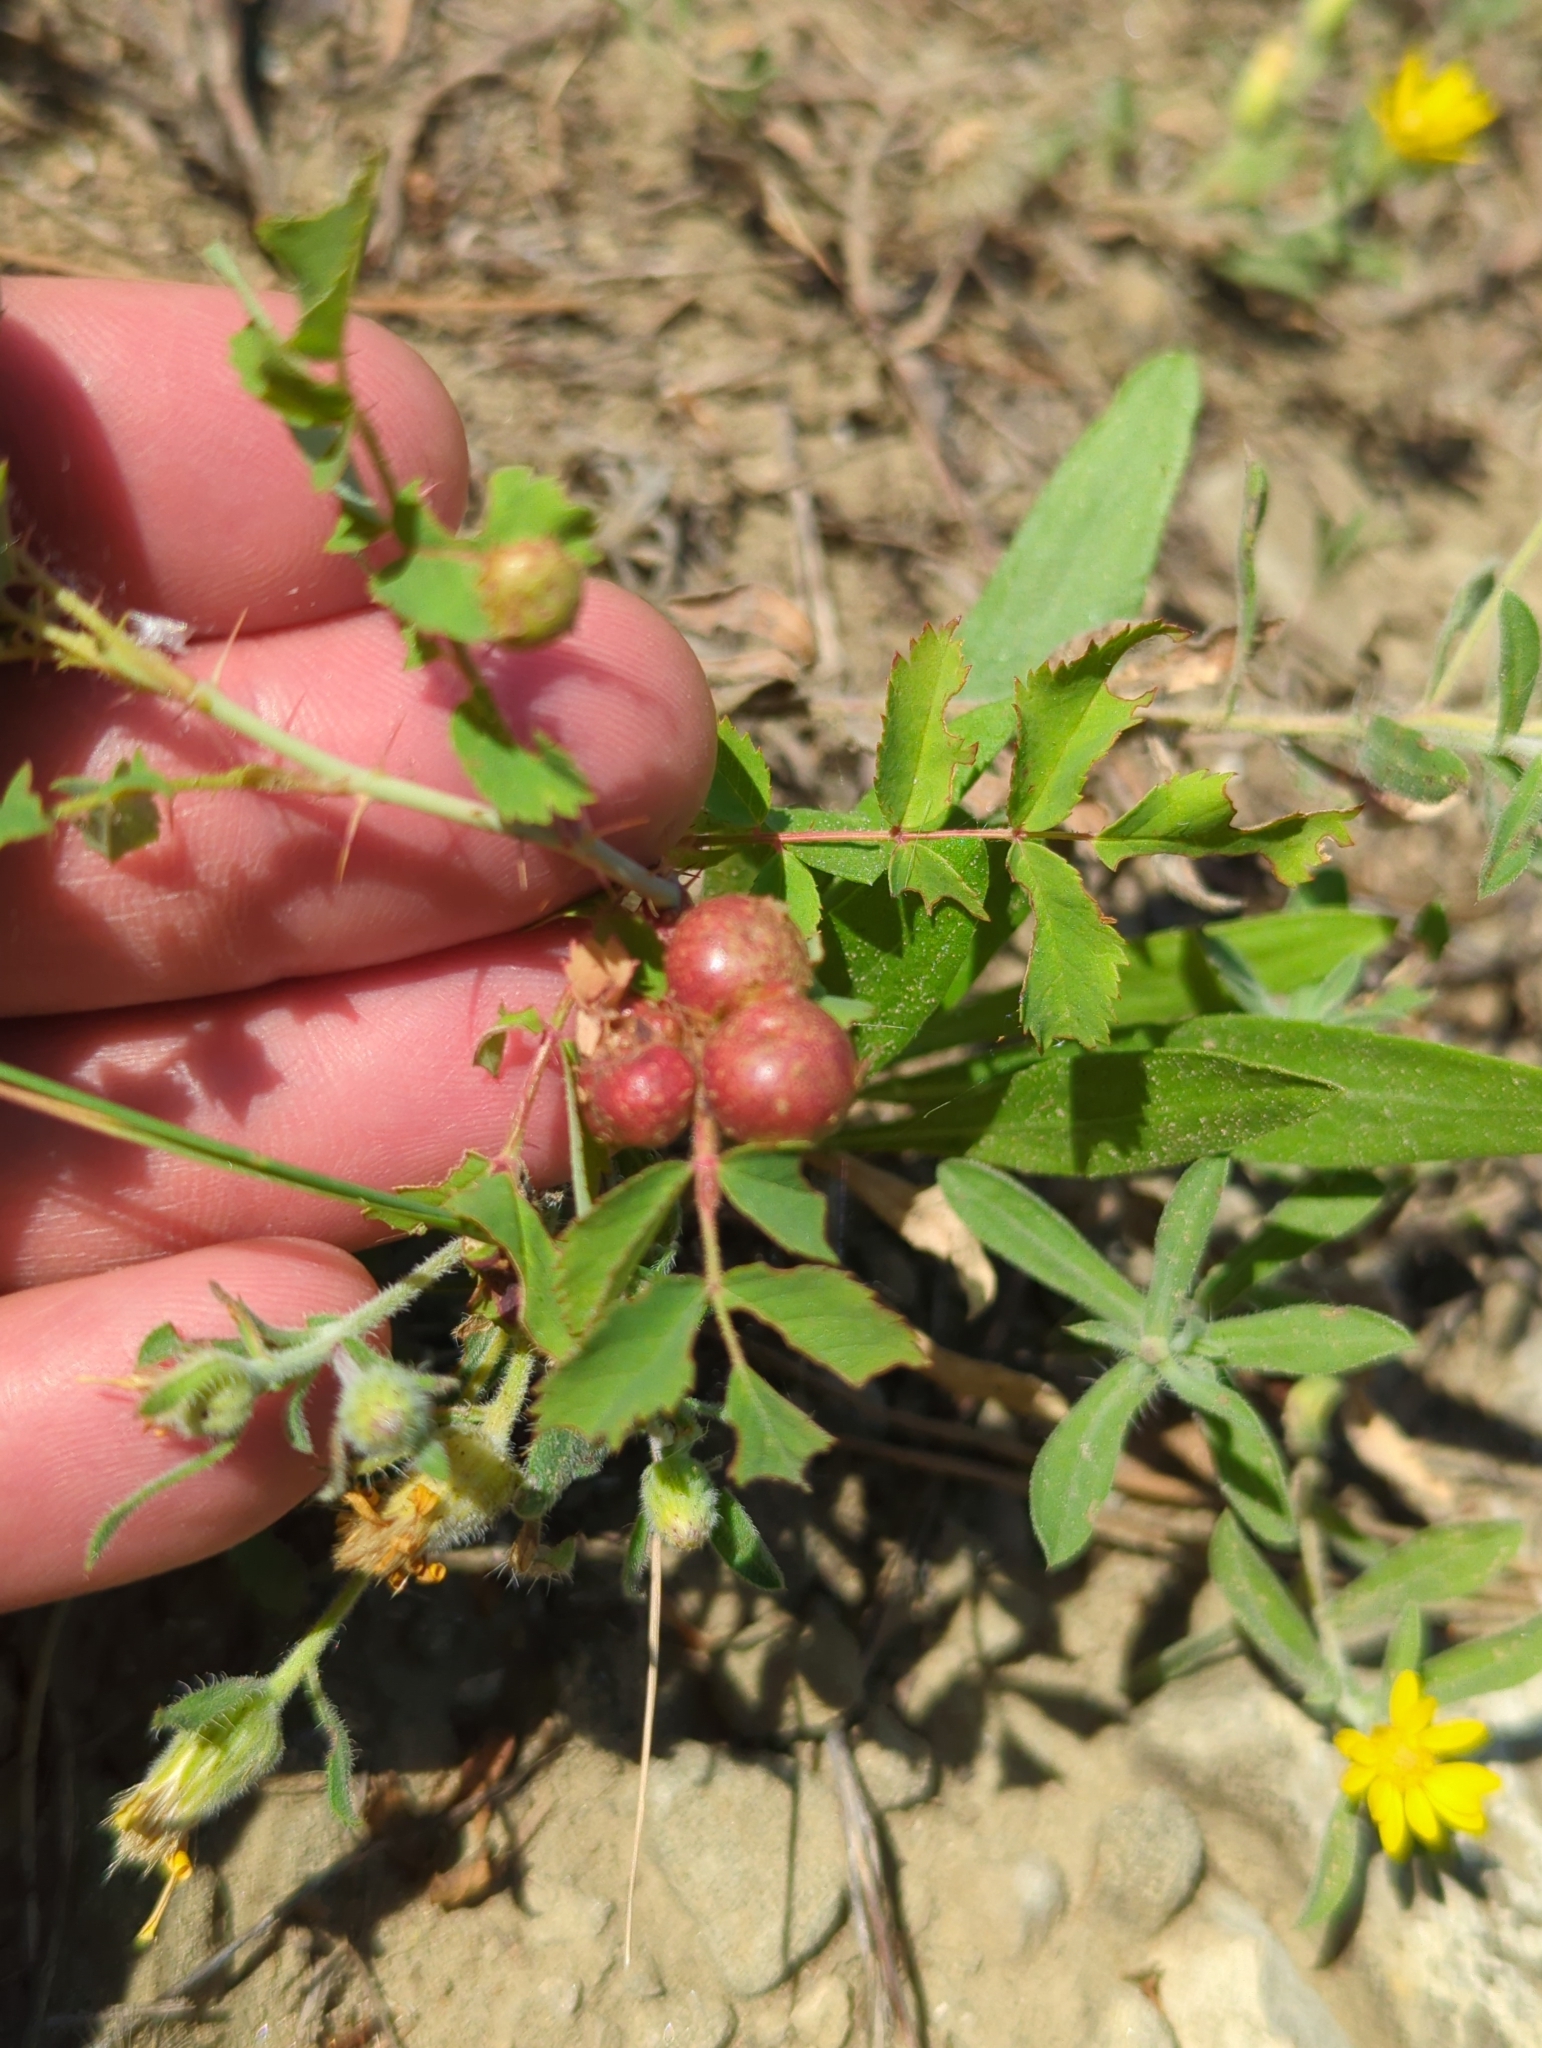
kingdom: Animalia
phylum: Arthropoda
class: Insecta
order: Hymenoptera
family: Cynipidae
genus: Diplolepis
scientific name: Diplolepis ignota
